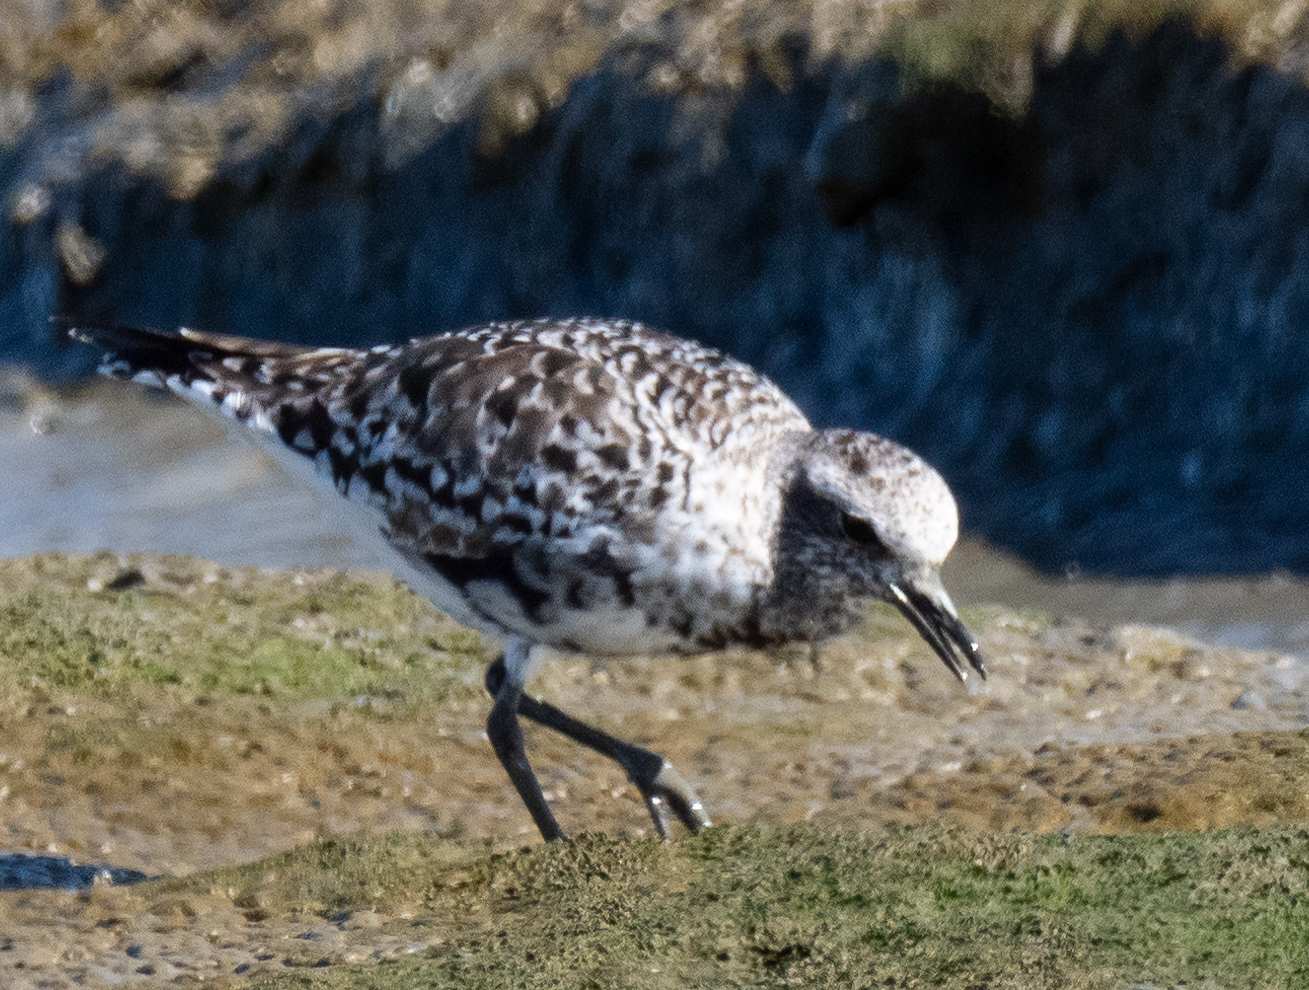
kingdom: Animalia
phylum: Chordata
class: Aves
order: Charadriiformes
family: Charadriidae
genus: Pluvialis
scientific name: Pluvialis squatarola
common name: Grey plover
